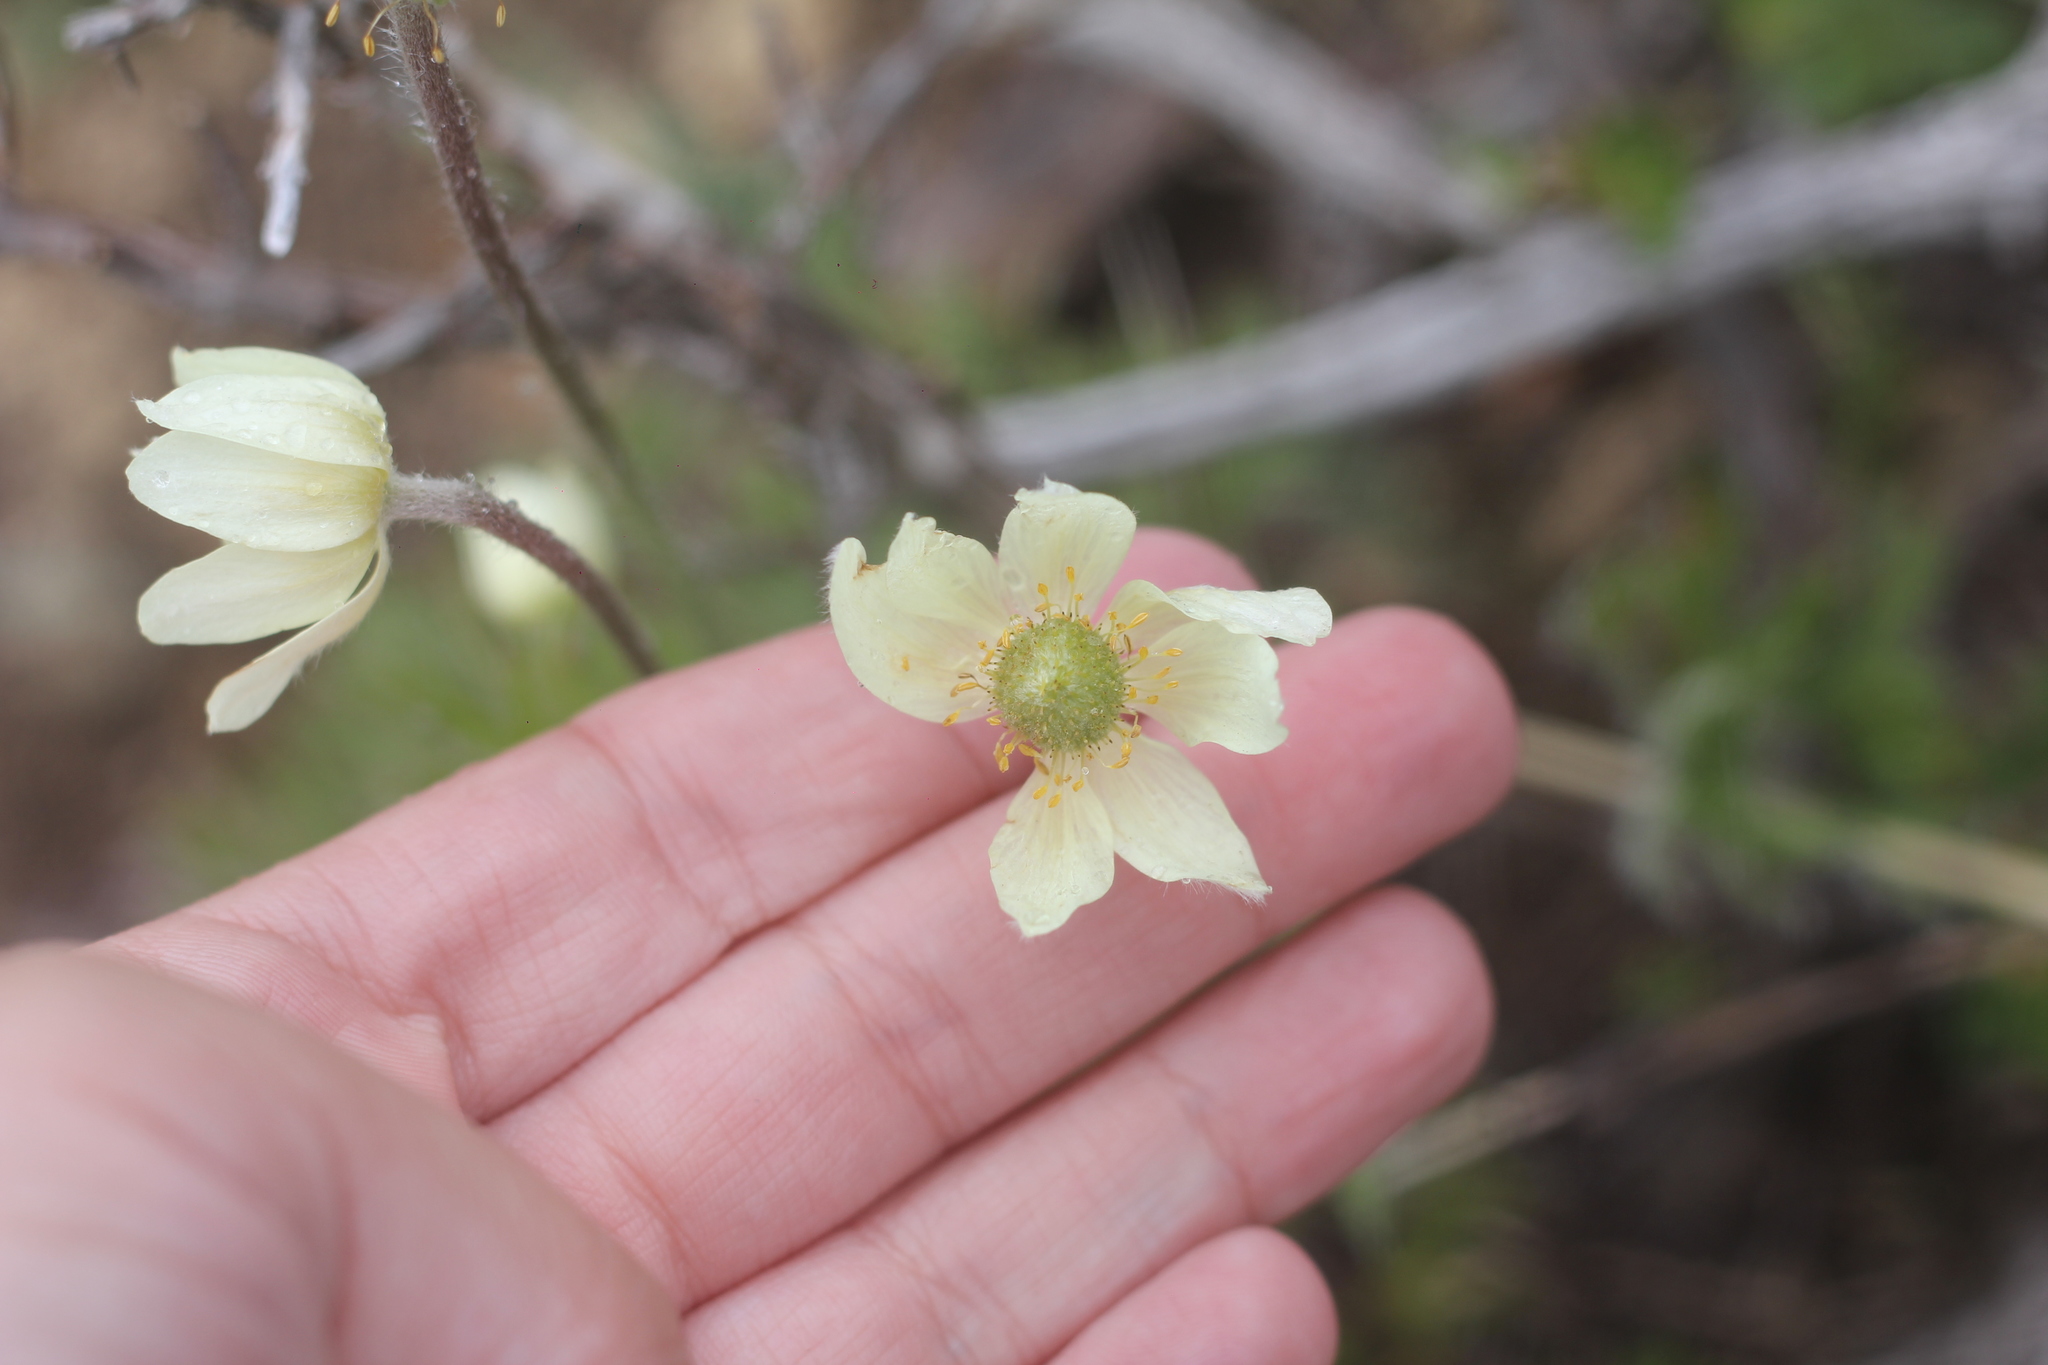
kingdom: Plantae
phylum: Tracheophyta
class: Magnoliopsida
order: Ranunculales
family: Ranunculaceae
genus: Anemone
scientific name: Anemone multifida
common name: Bird's-foot anemone
